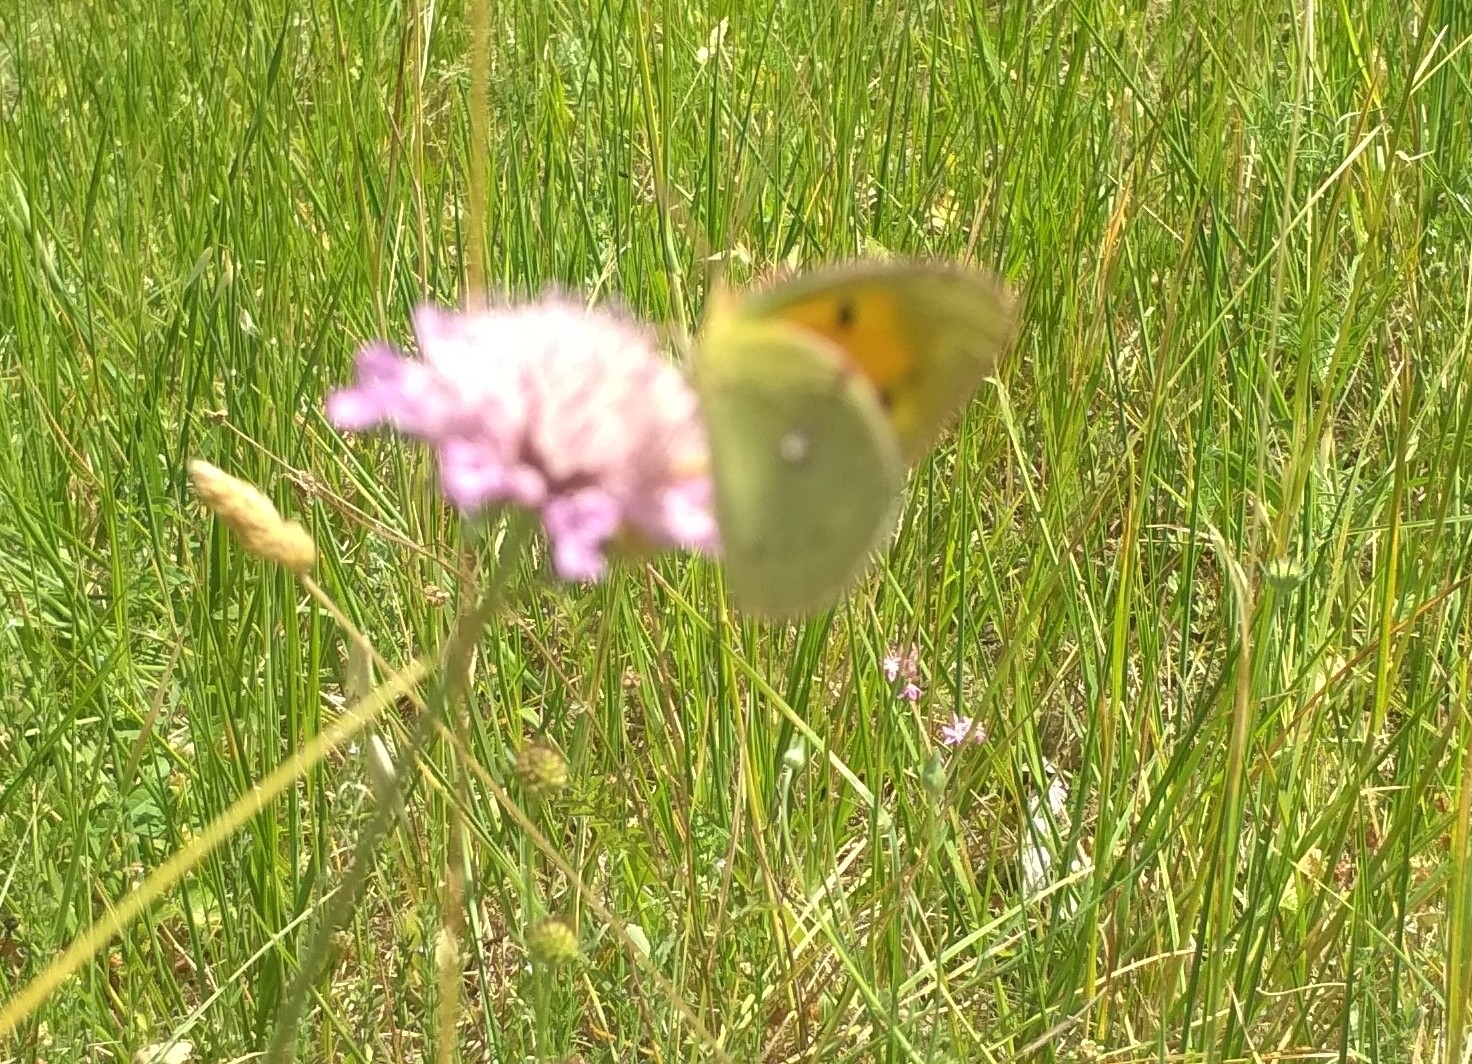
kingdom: Animalia
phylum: Arthropoda
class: Insecta
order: Lepidoptera
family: Pieridae
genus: Colias
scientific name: Colias croceus
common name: Clouded yellow
